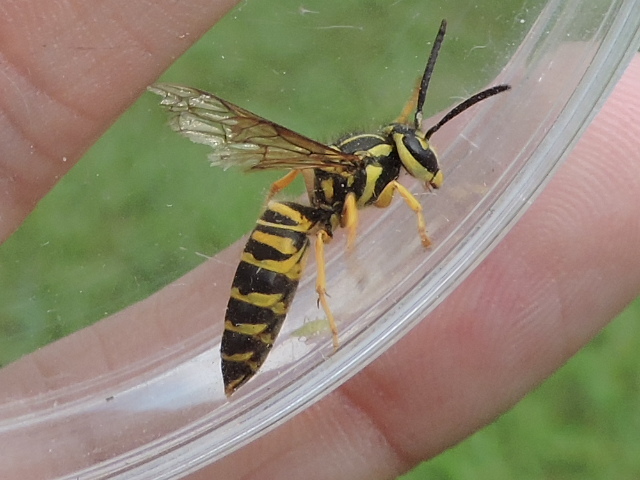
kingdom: Animalia
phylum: Arthropoda
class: Insecta
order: Hymenoptera
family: Vespidae
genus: Vespula
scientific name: Vespula squamosa
